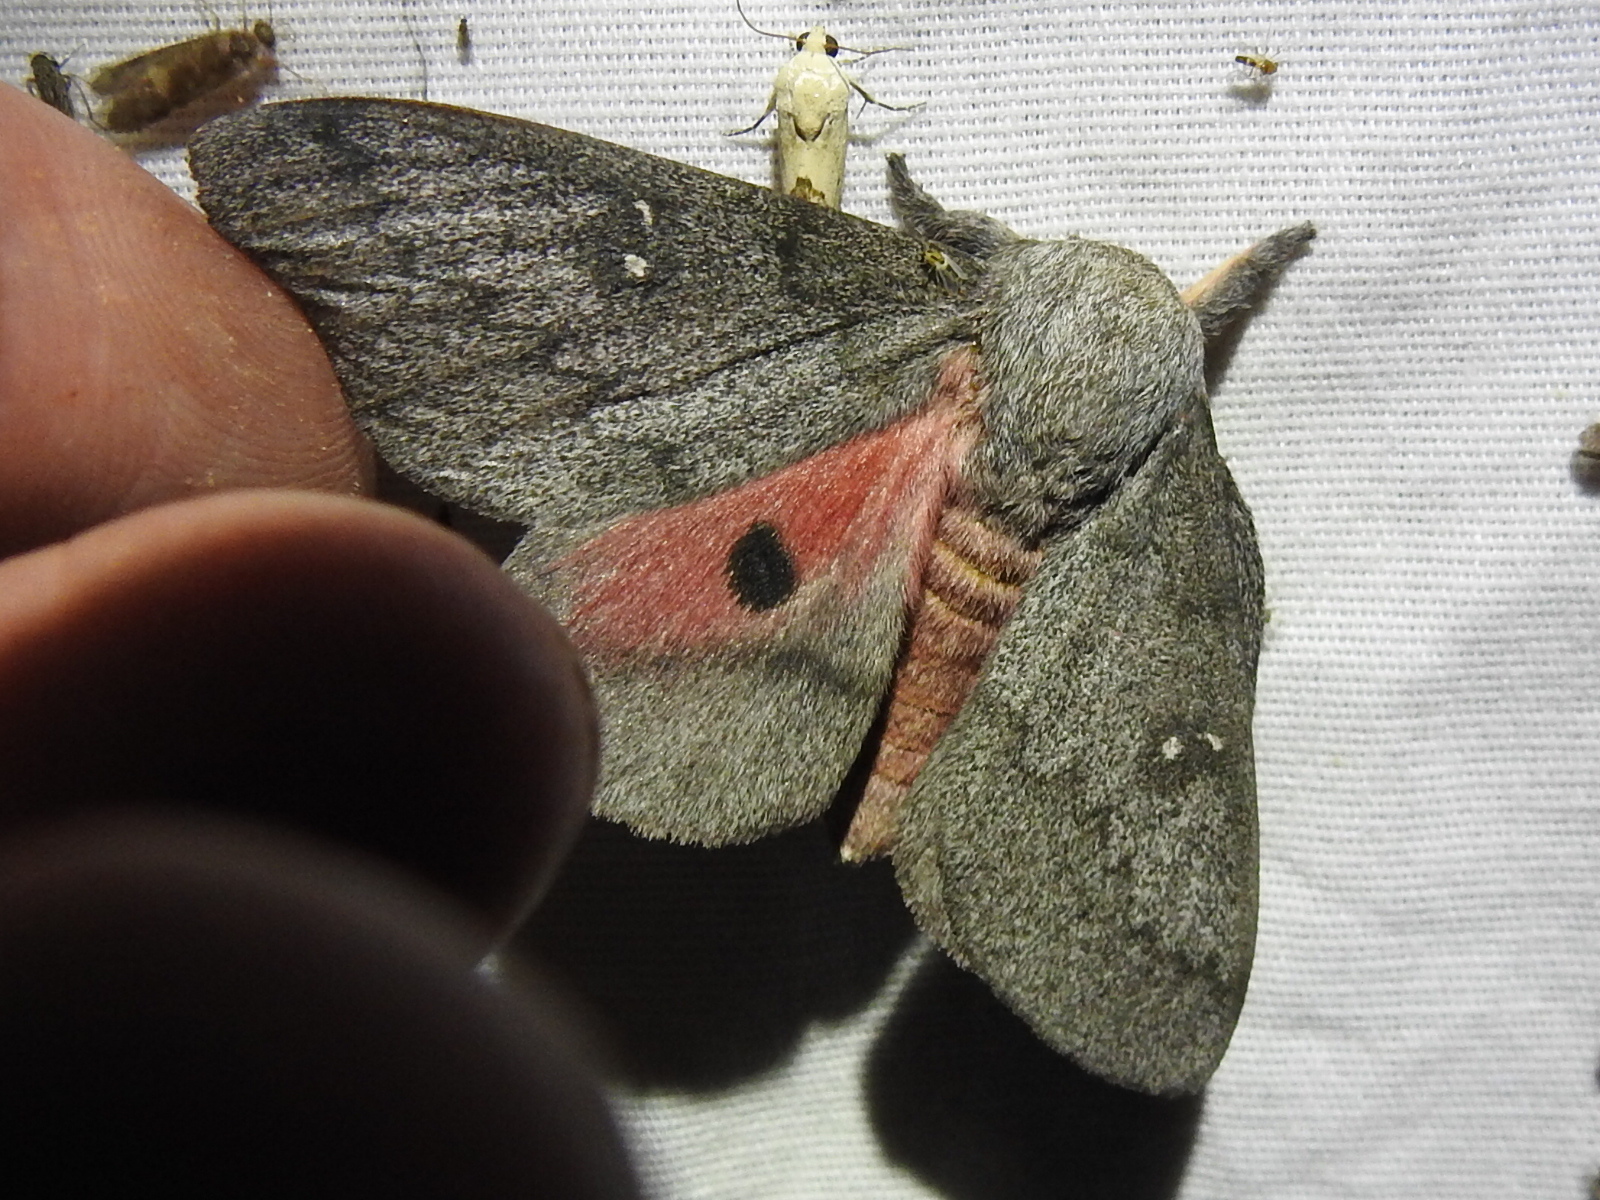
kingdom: Animalia
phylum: Arthropoda
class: Insecta
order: Lepidoptera
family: Saturniidae
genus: Syssphinx
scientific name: Syssphinx heiligbrodti
